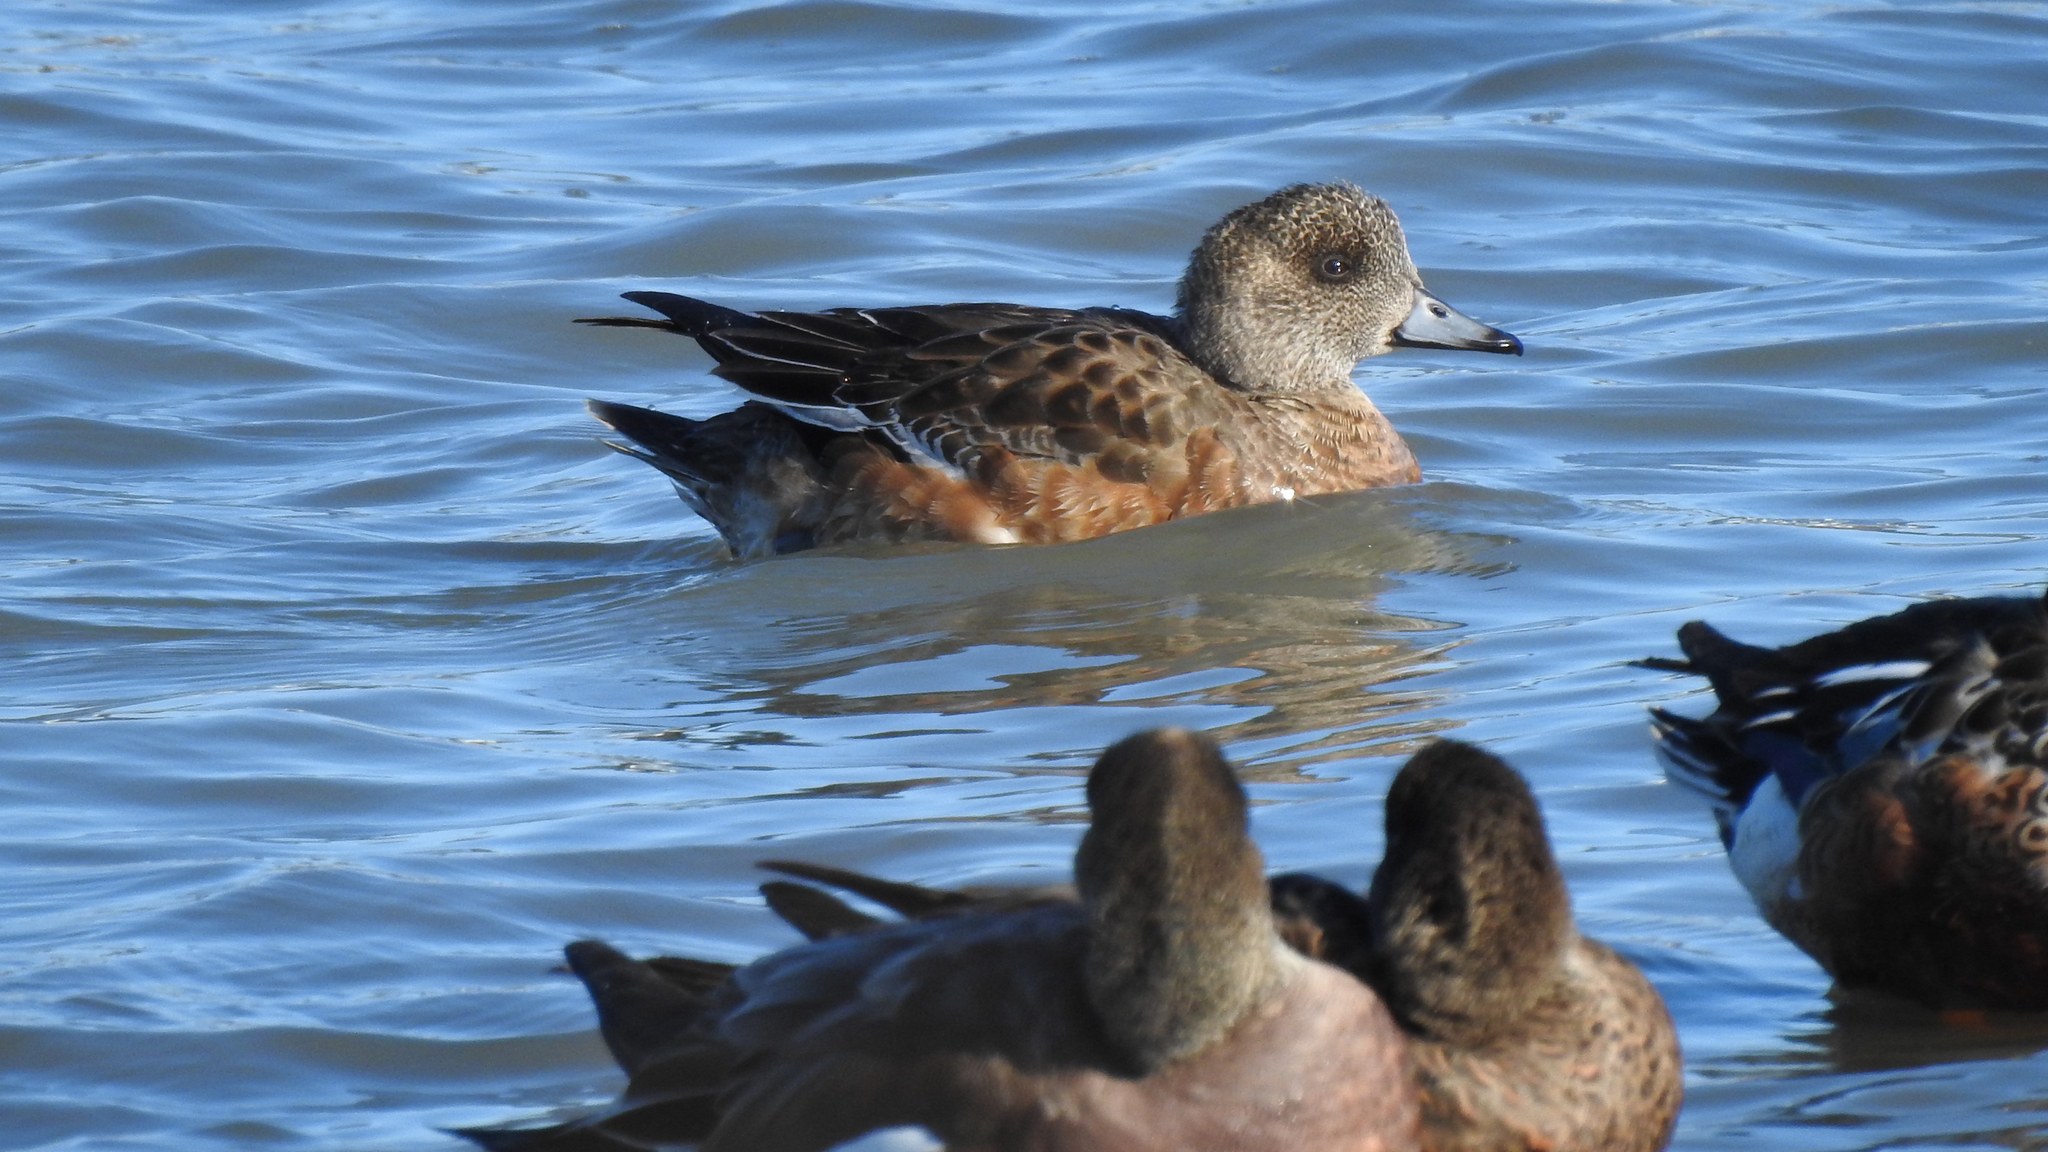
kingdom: Animalia
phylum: Chordata
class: Aves
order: Anseriformes
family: Anatidae
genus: Mareca
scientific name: Mareca americana
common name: American wigeon
